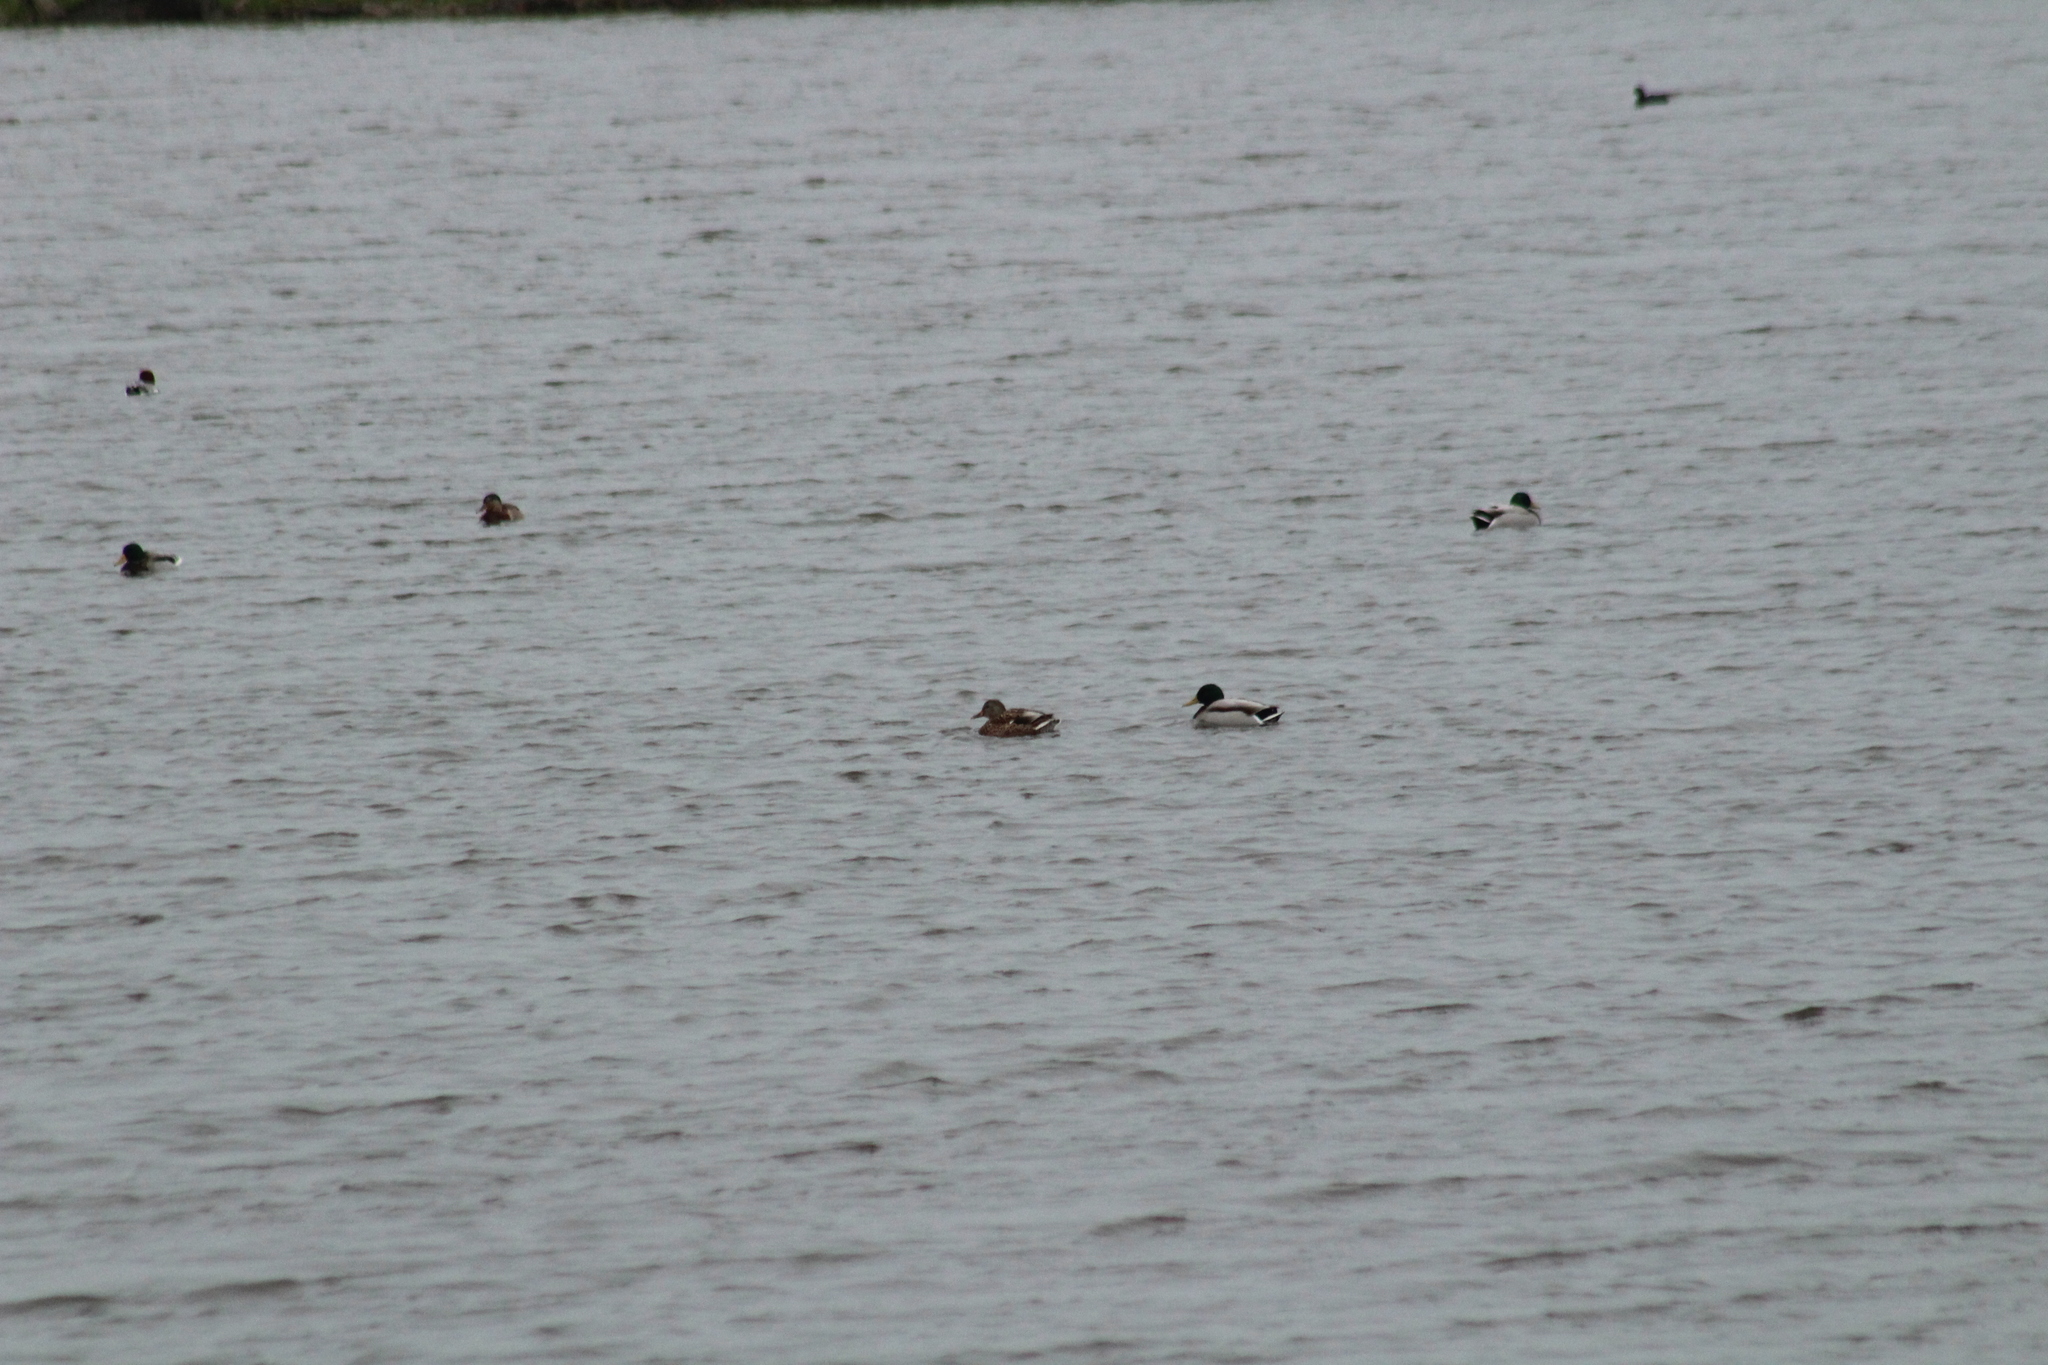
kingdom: Animalia
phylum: Chordata
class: Aves
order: Anseriformes
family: Anatidae
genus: Anas
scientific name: Anas platyrhynchos
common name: Mallard
